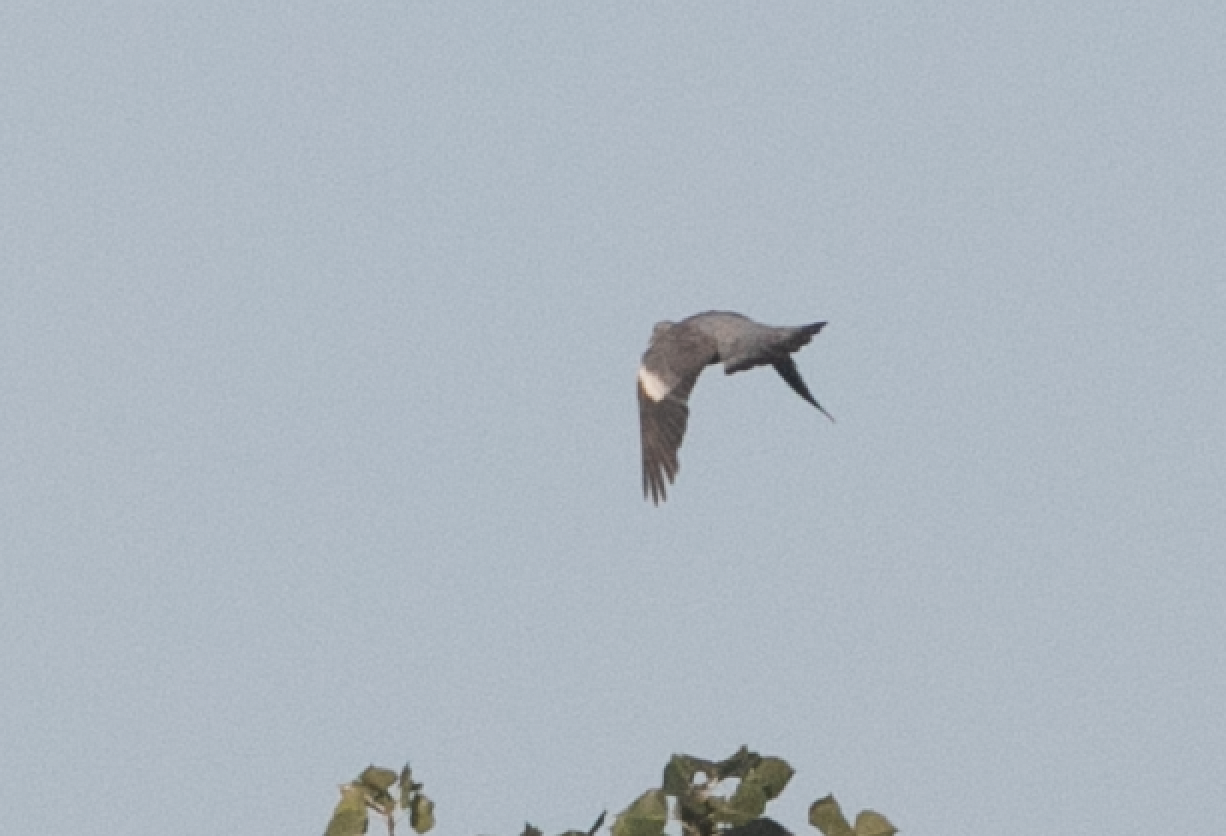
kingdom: Animalia
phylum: Chordata
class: Aves
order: Columbiformes
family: Columbidae
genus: Columba
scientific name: Columba palumbus
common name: Common wood pigeon
